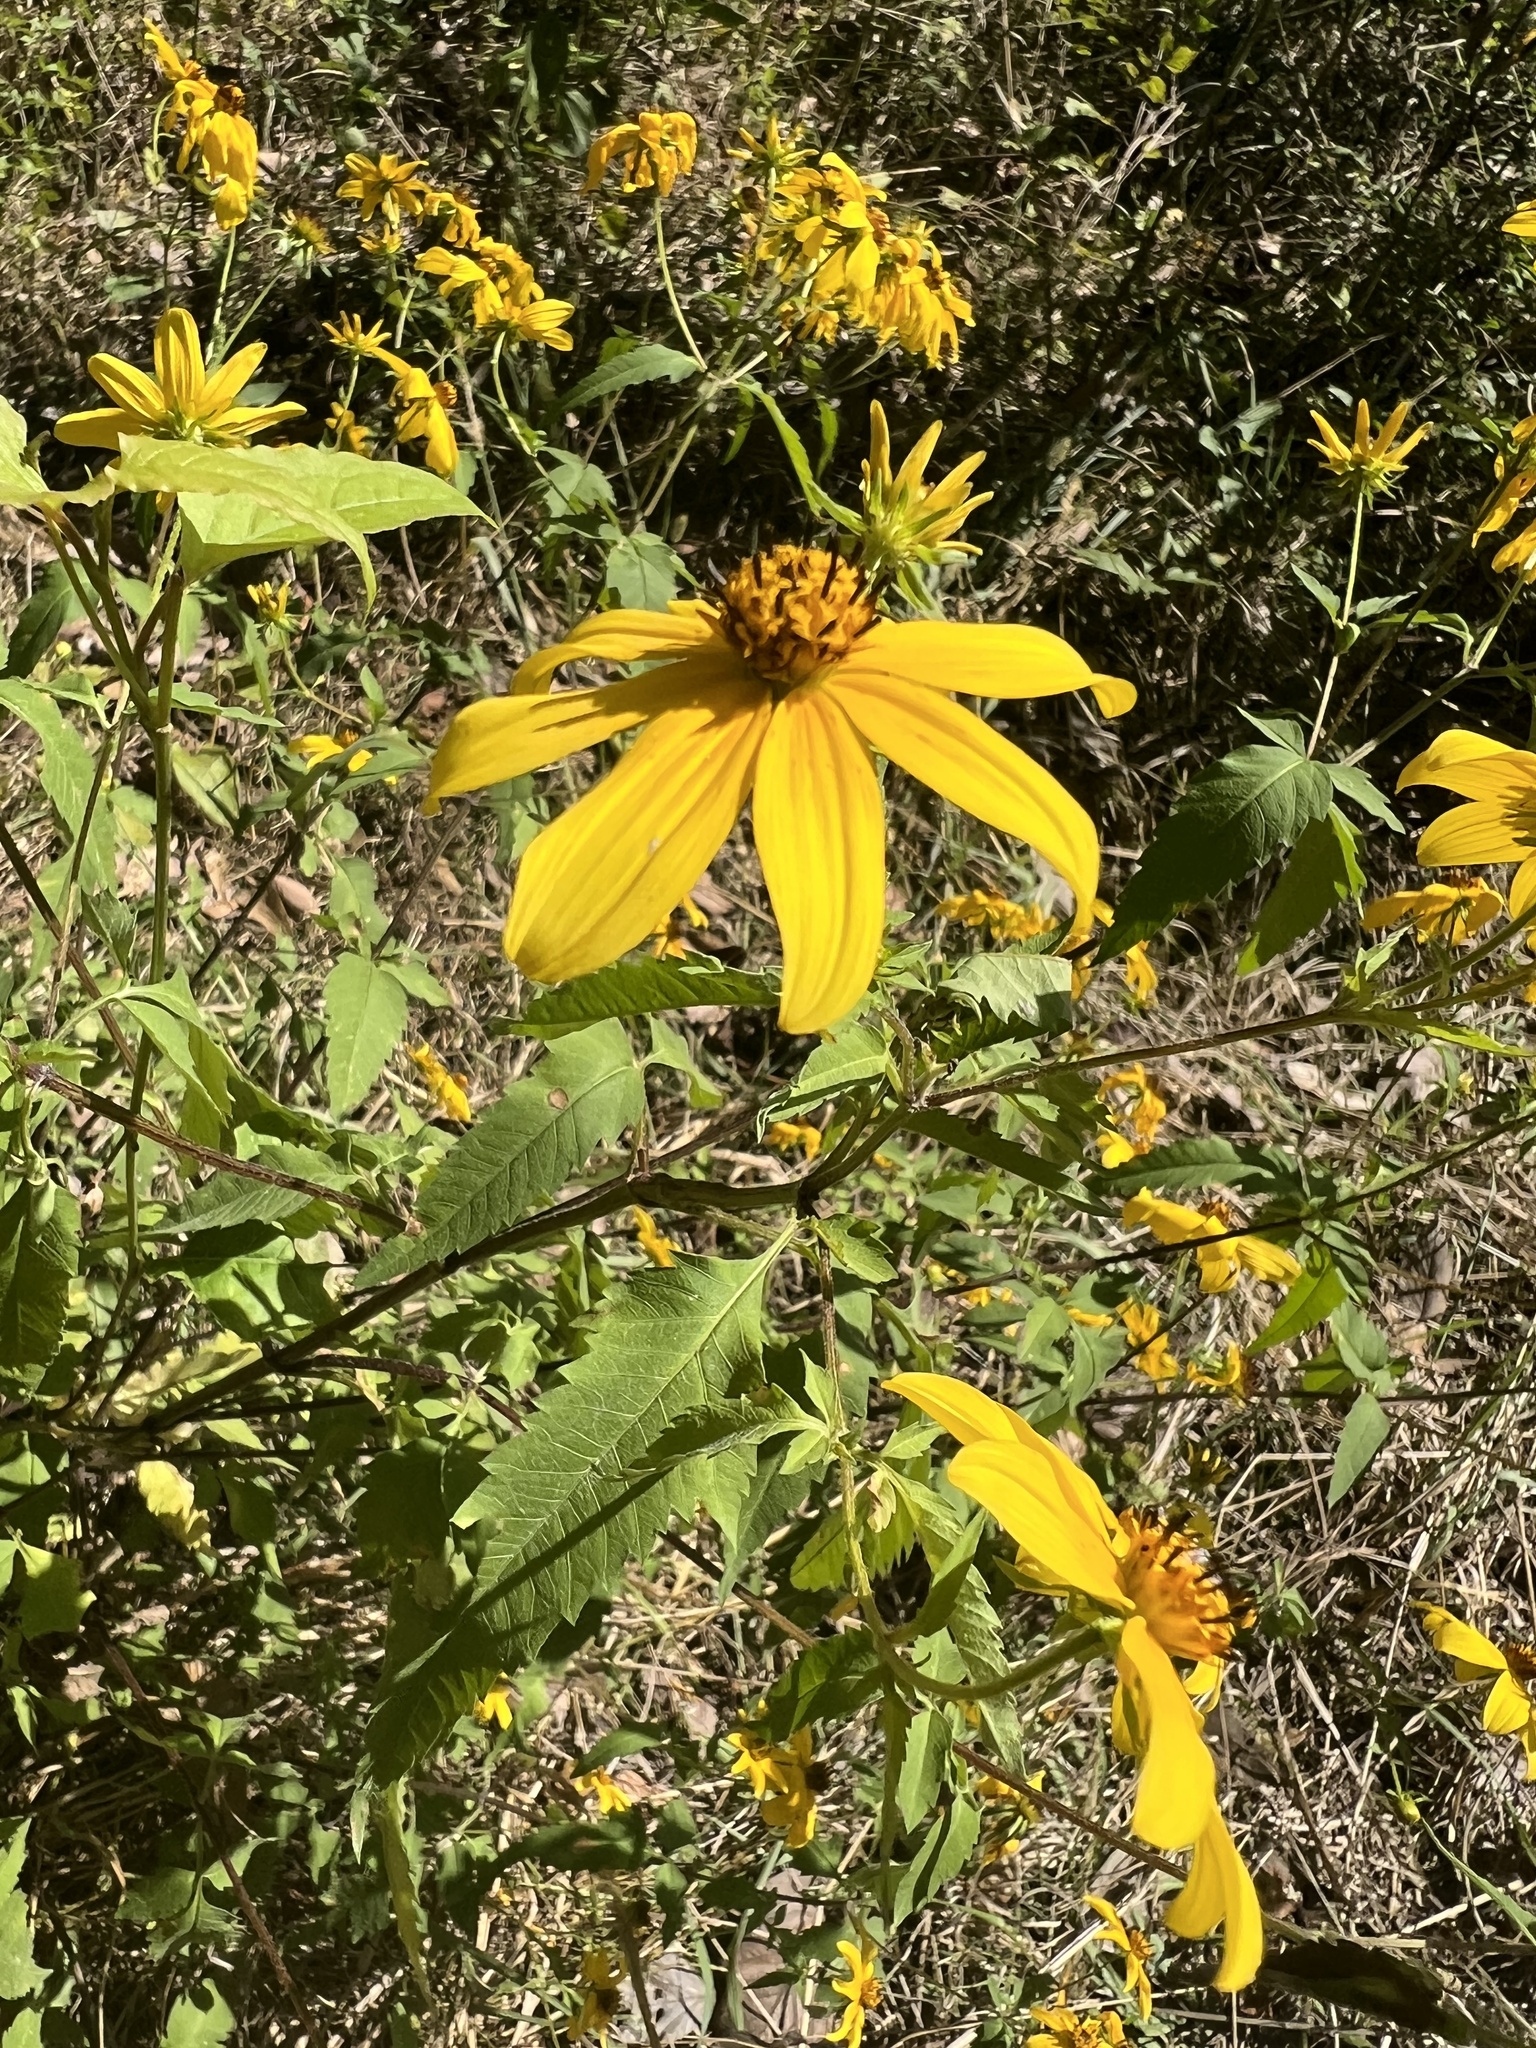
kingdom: Plantae
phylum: Tracheophyta
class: Magnoliopsida
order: Asterales
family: Asteraceae
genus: Bidens
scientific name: Bidens aristosa
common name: Western tickseed
